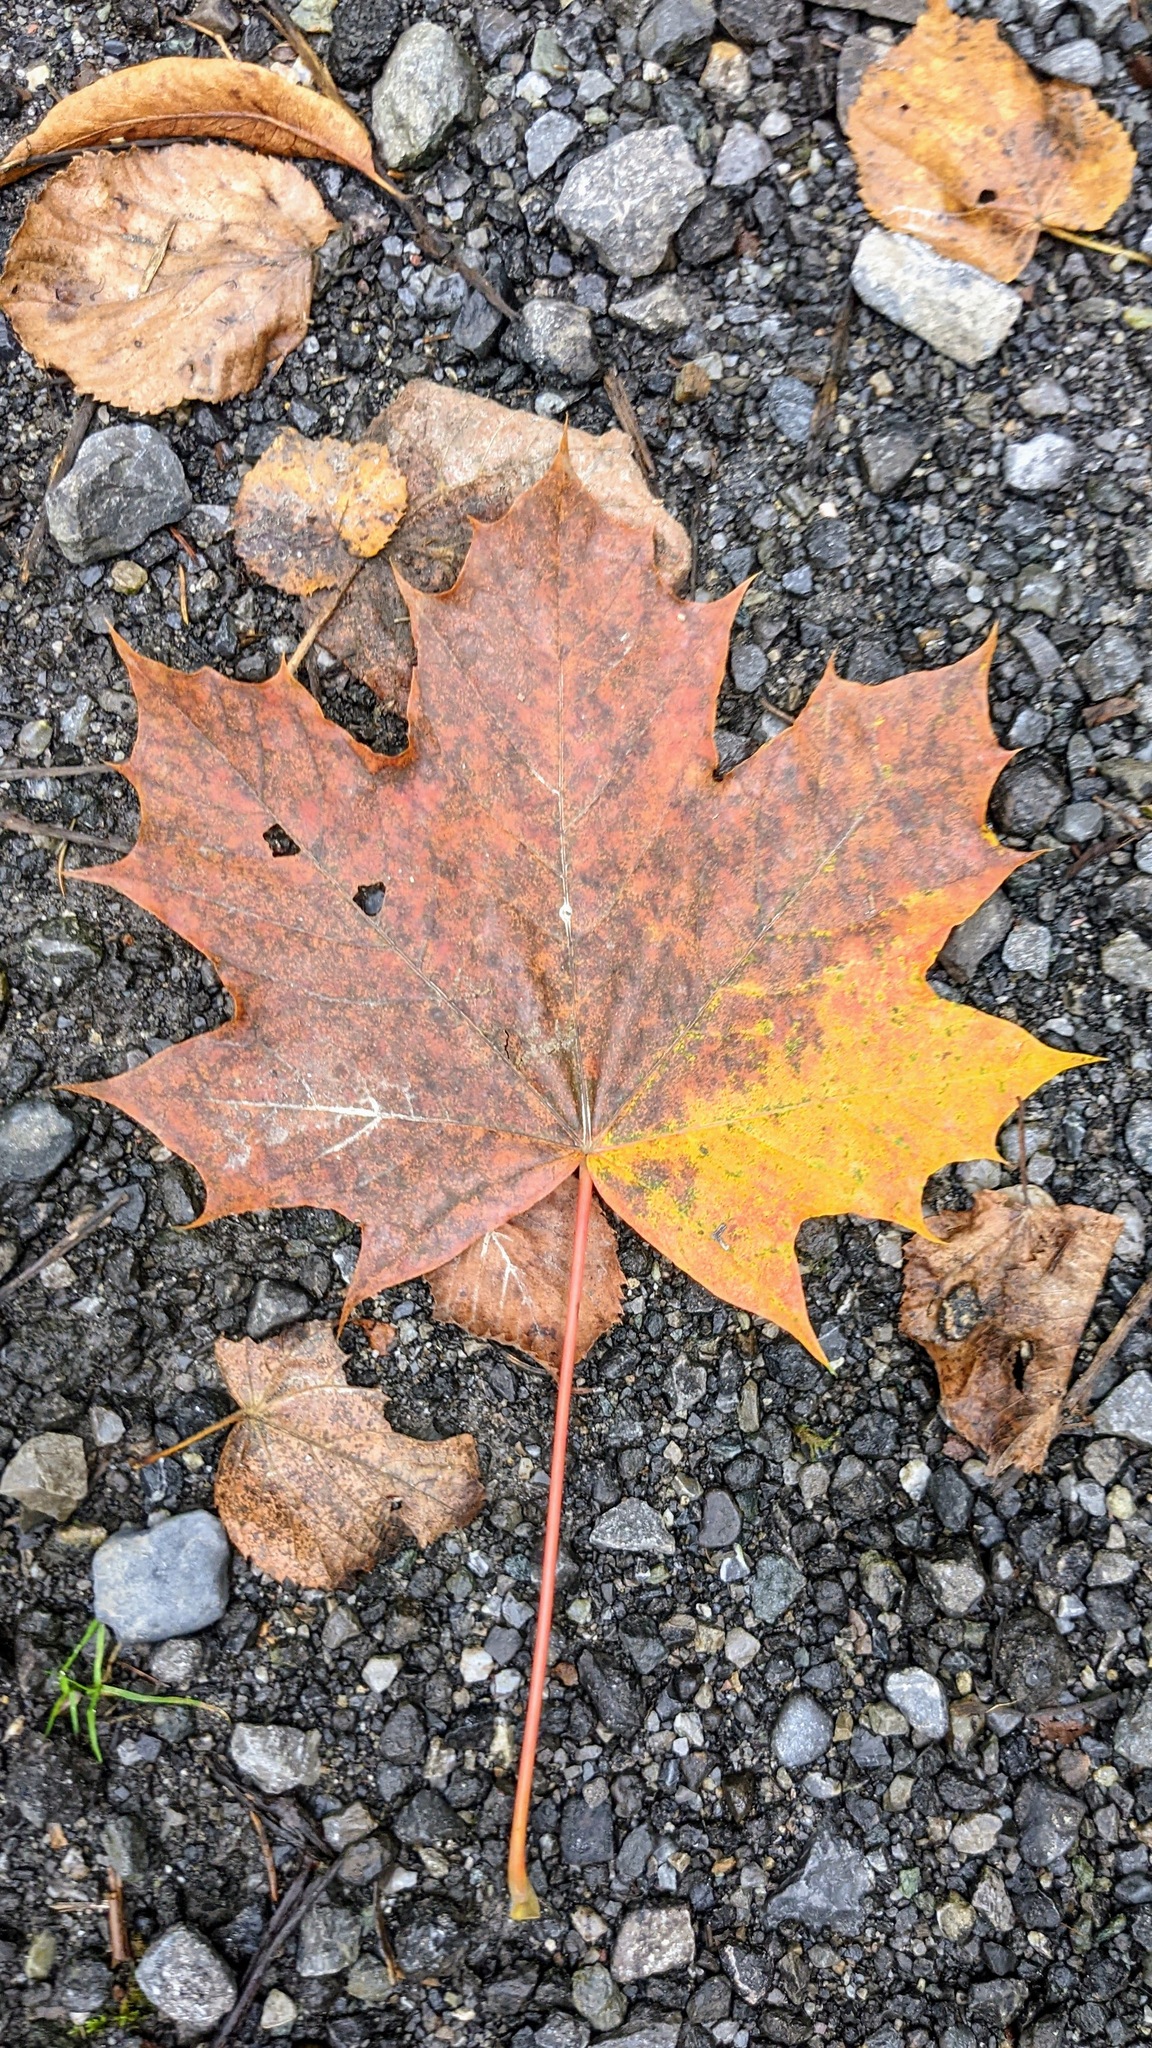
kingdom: Plantae
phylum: Tracheophyta
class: Magnoliopsida
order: Sapindales
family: Sapindaceae
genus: Acer
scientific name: Acer platanoides
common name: Norway maple
